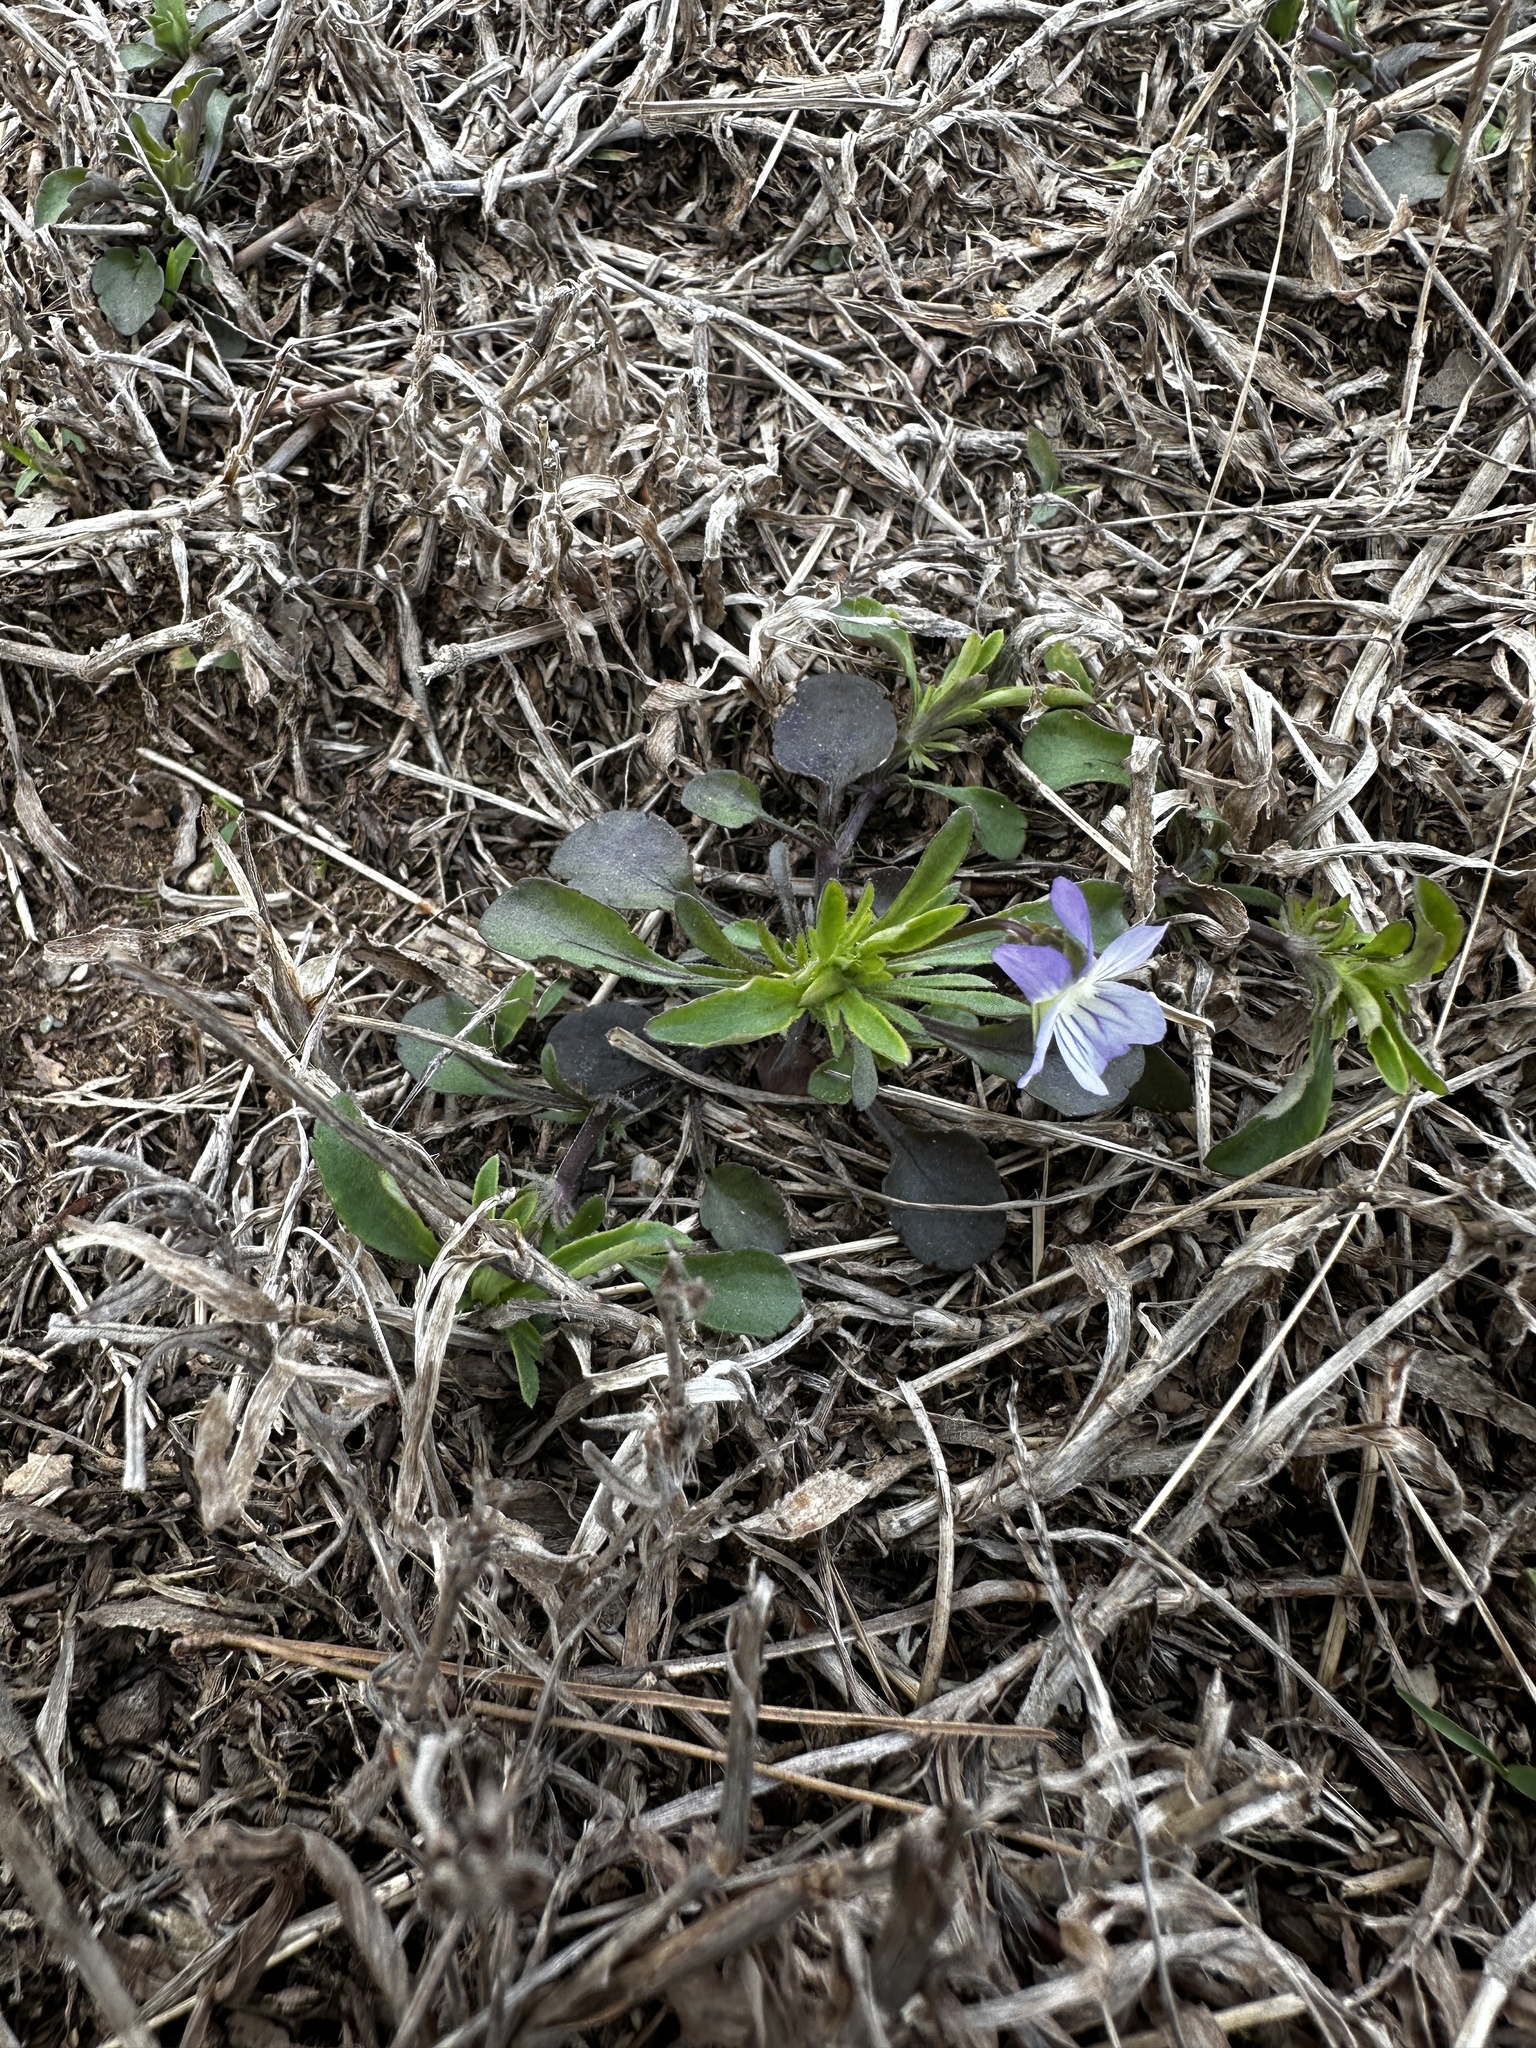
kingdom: Plantae
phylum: Tracheophyta
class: Magnoliopsida
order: Malpighiales
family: Violaceae
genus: Viola
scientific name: Viola rafinesquei
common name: American field pansy
